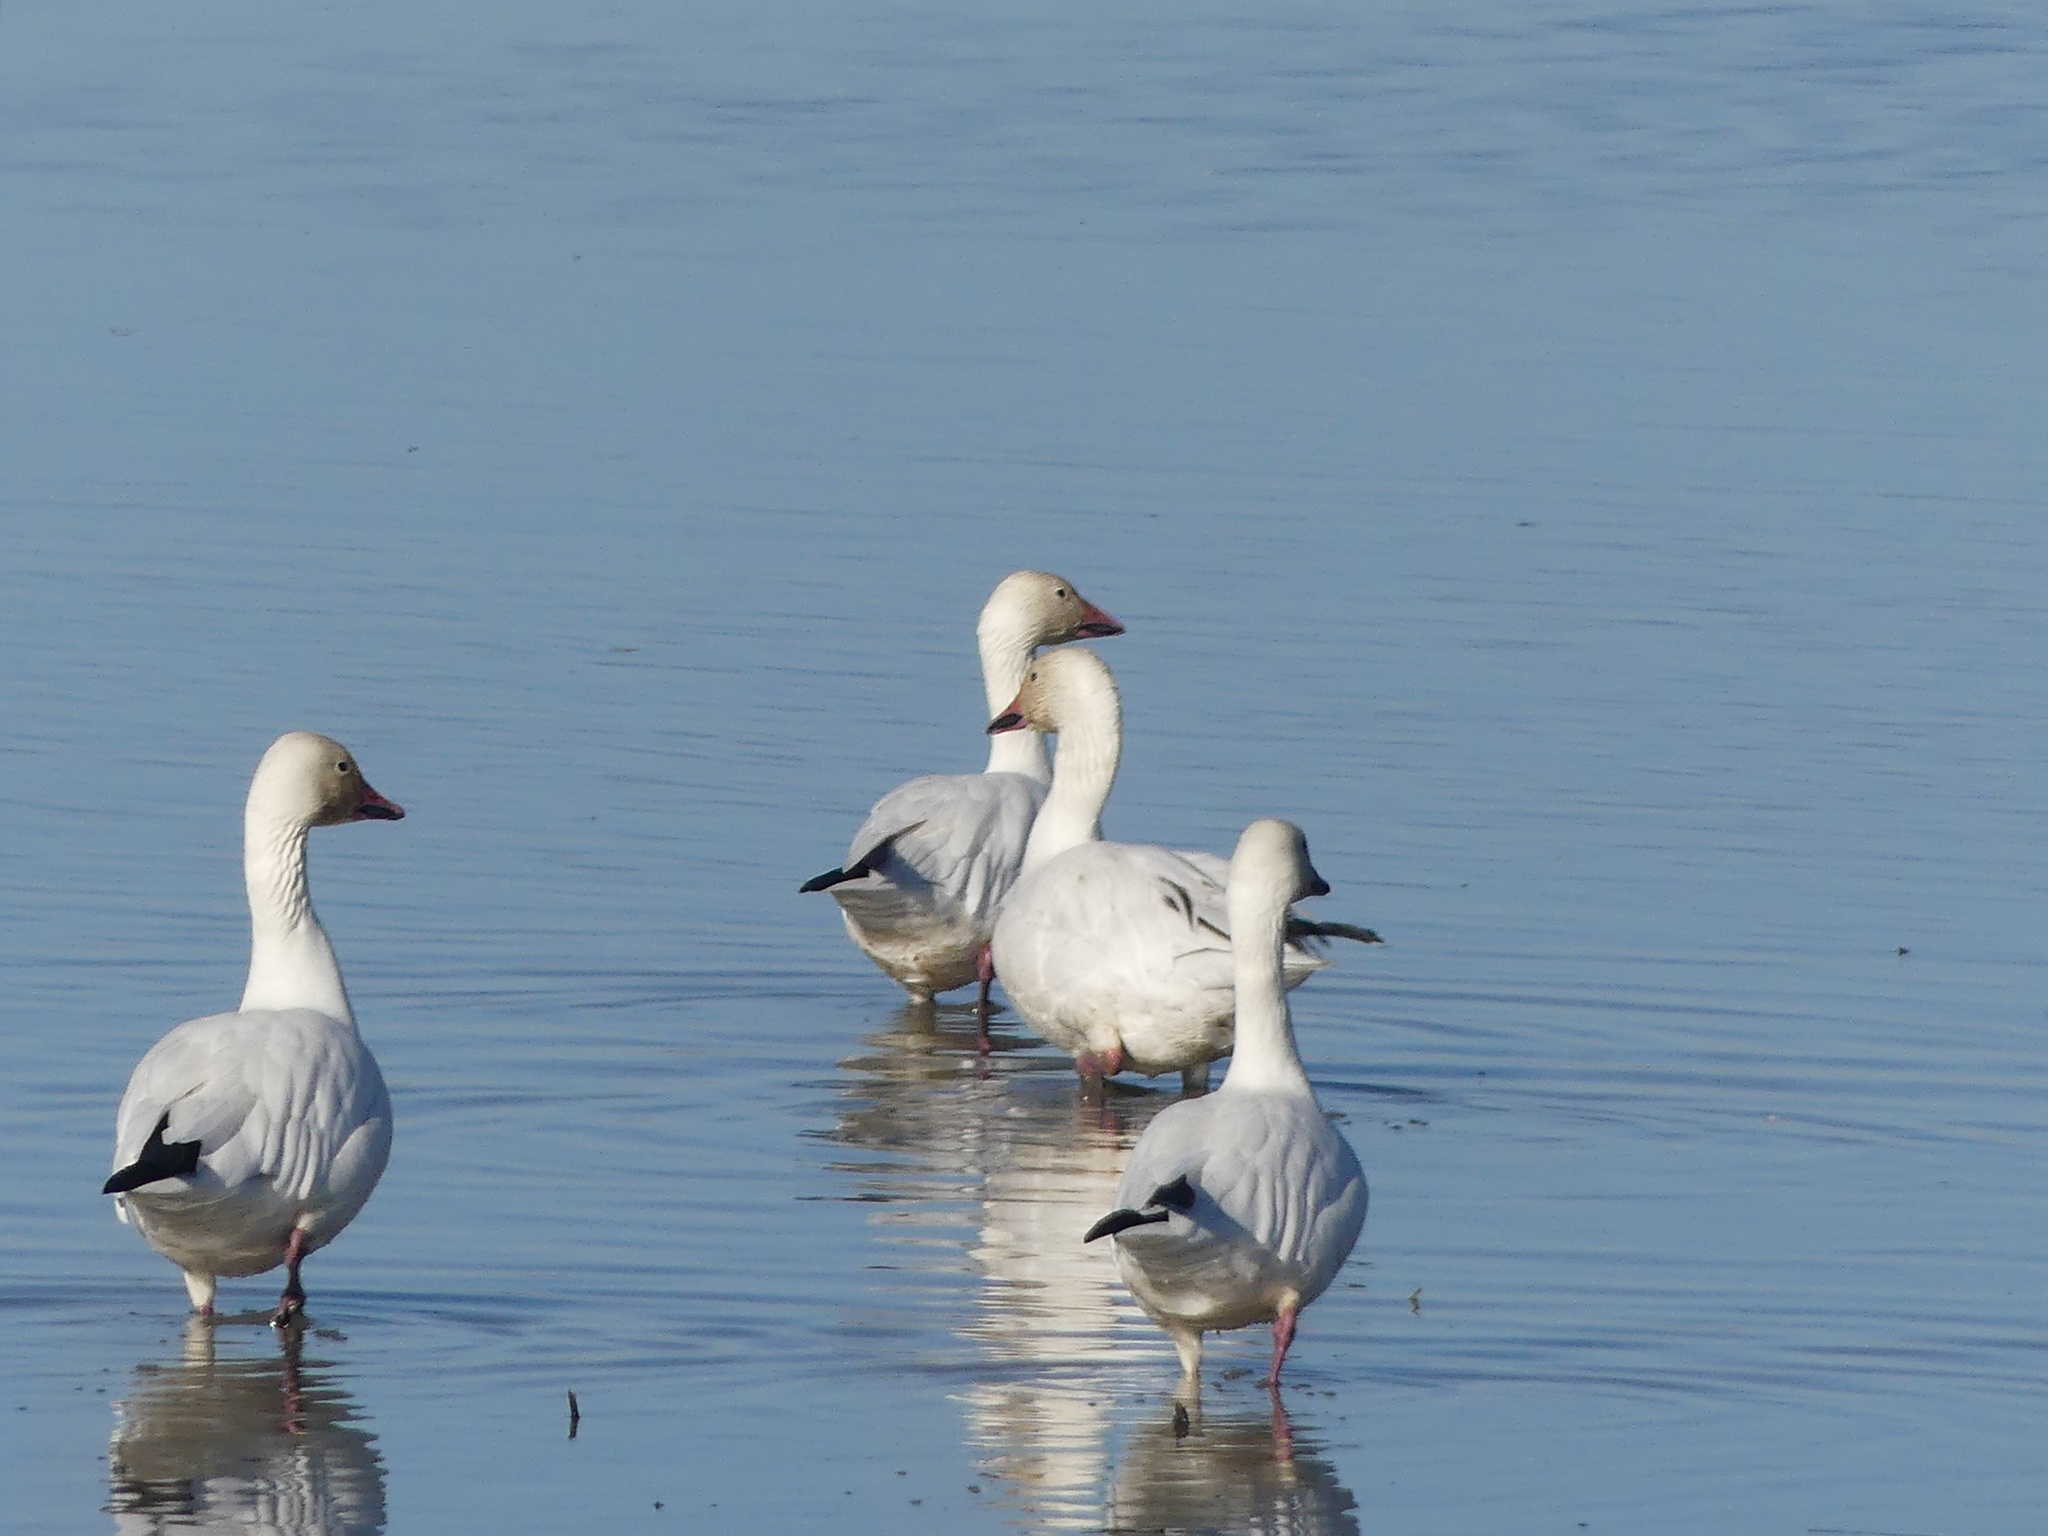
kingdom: Animalia
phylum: Chordata
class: Aves
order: Anseriformes
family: Anatidae
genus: Anser
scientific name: Anser caerulescens
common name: Snow goose
